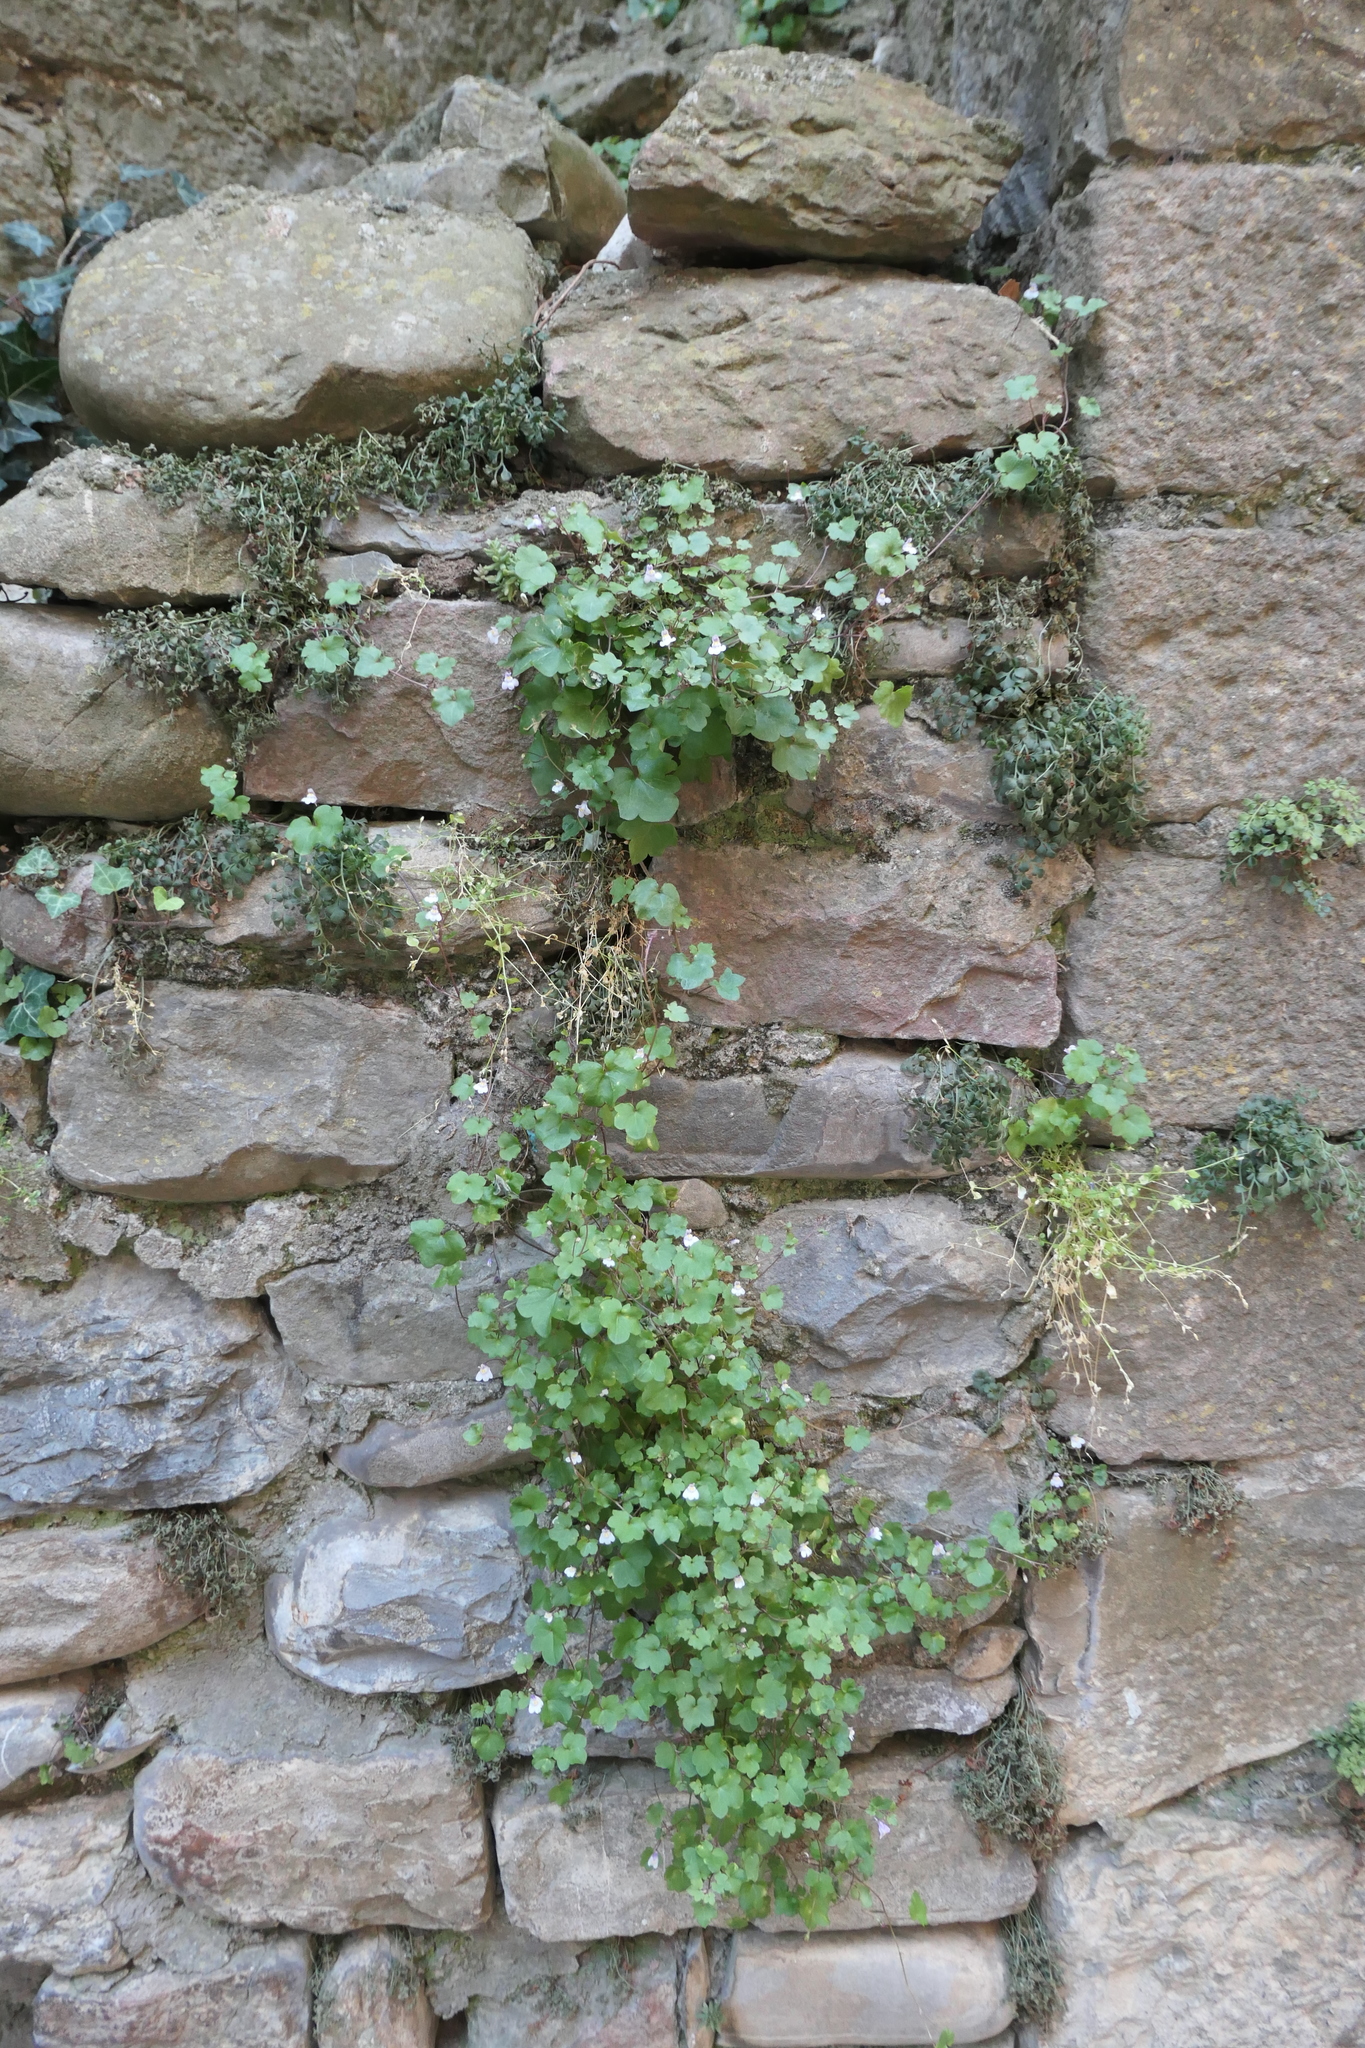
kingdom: Plantae
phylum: Tracheophyta
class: Magnoliopsida
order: Lamiales
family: Plantaginaceae
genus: Cymbalaria
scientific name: Cymbalaria muralis
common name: Ivy-leaved toadflax
